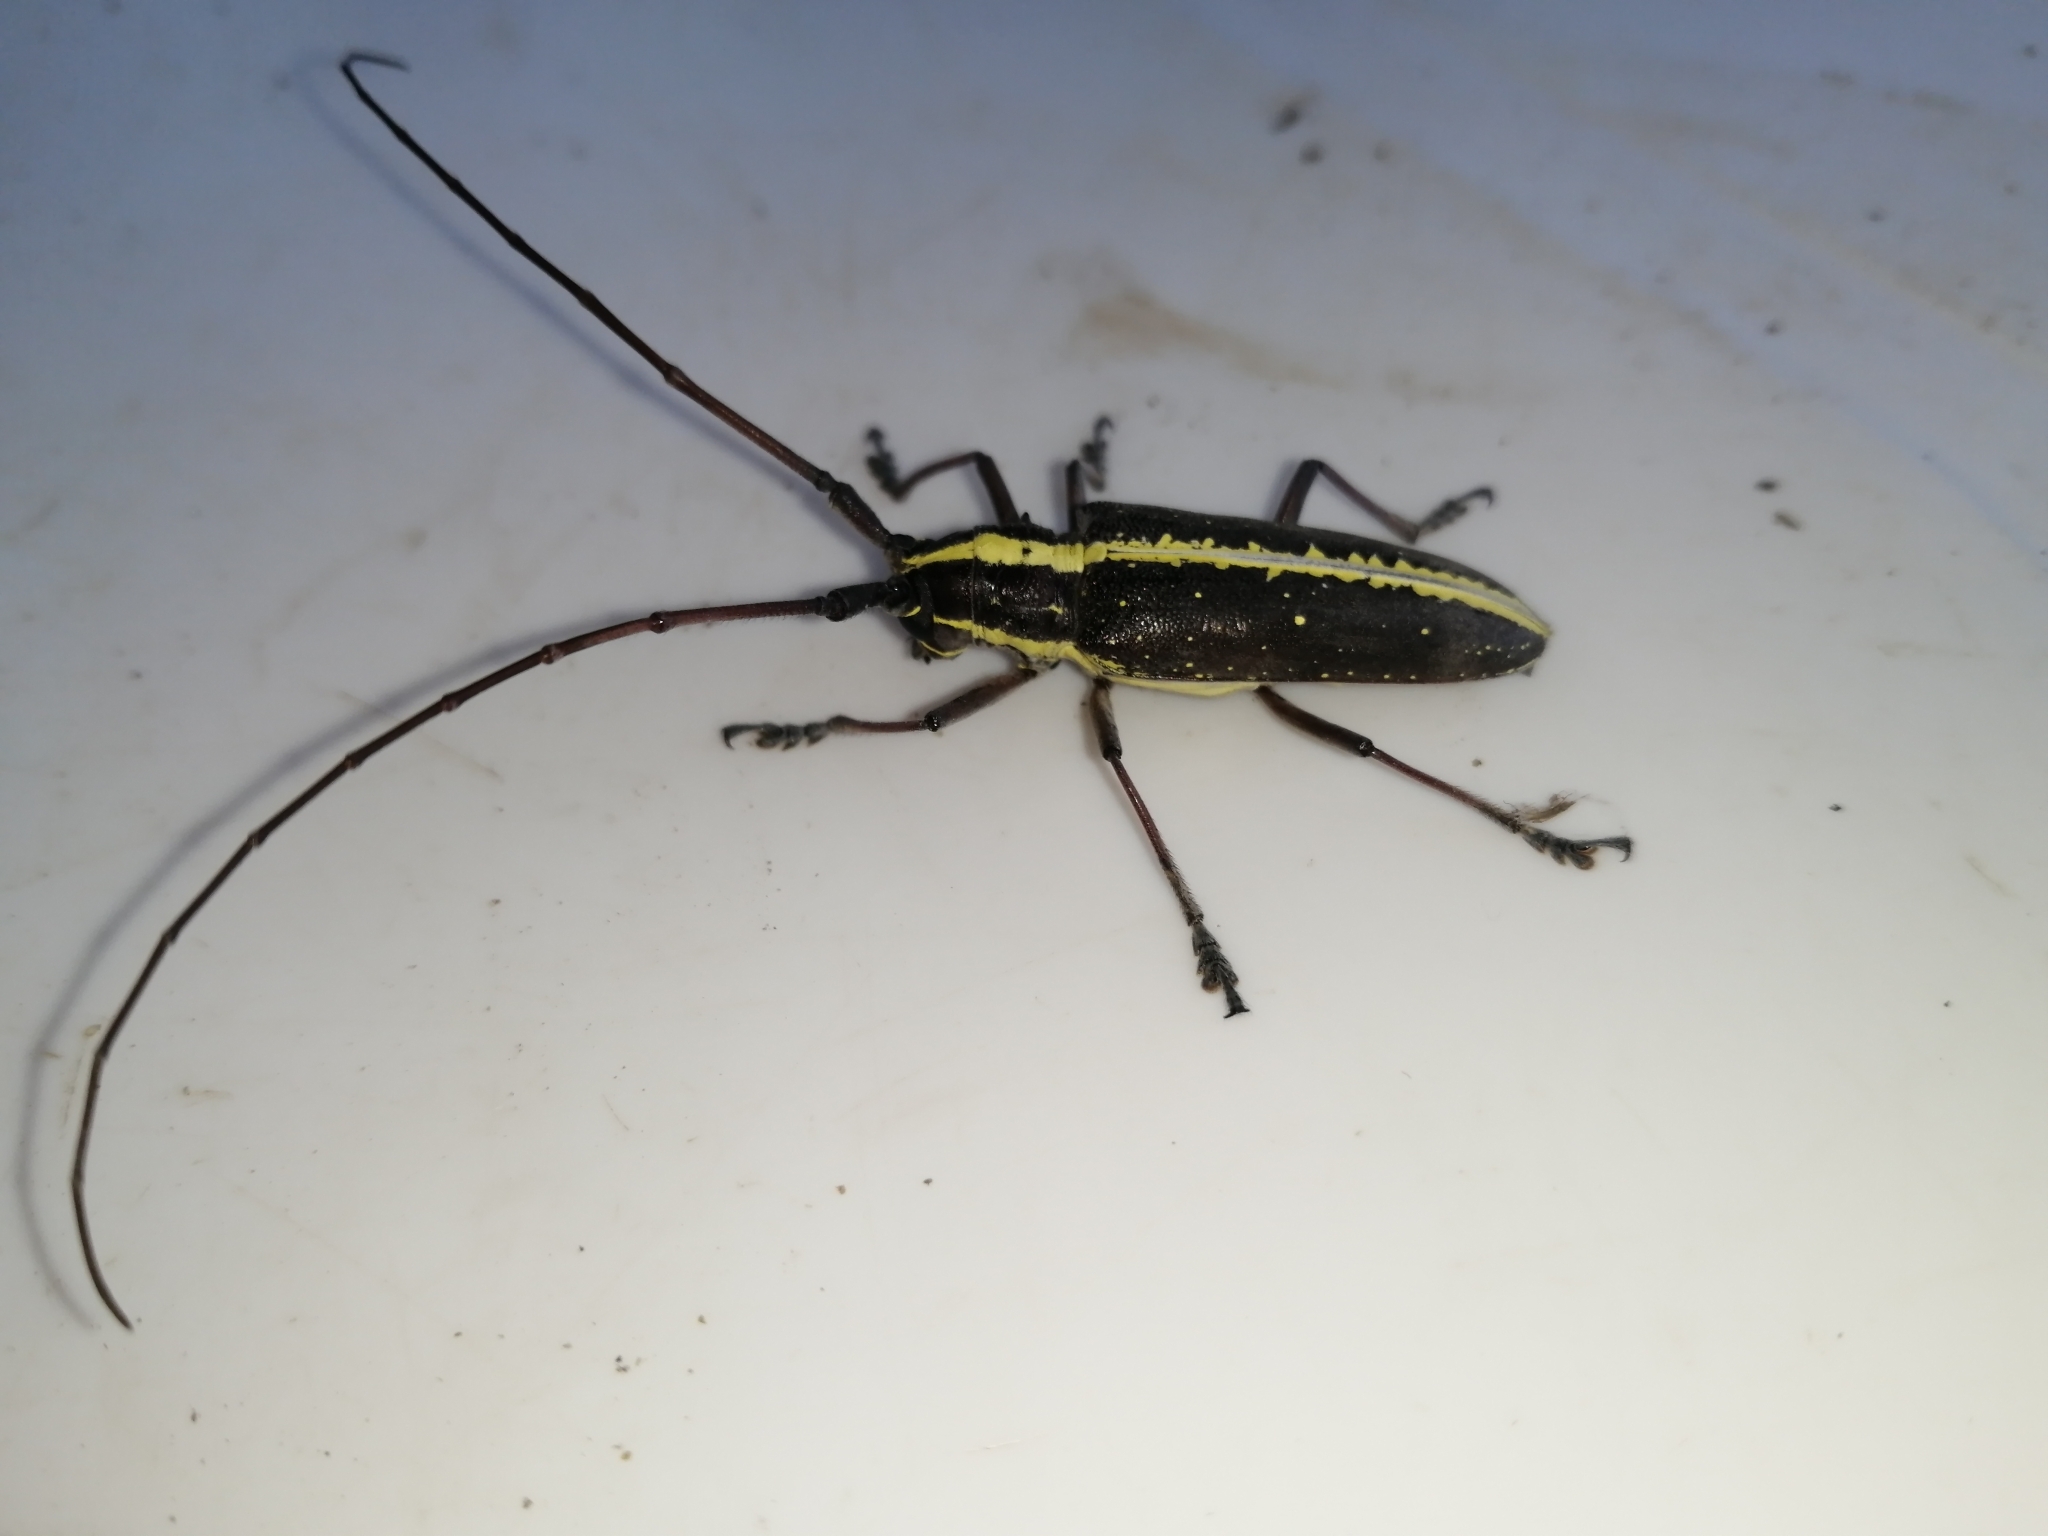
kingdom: Animalia
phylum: Arthropoda
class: Insecta
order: Coleoptera
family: Cerambycidae
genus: Taeniotes
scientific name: Taeniotes scalatus
